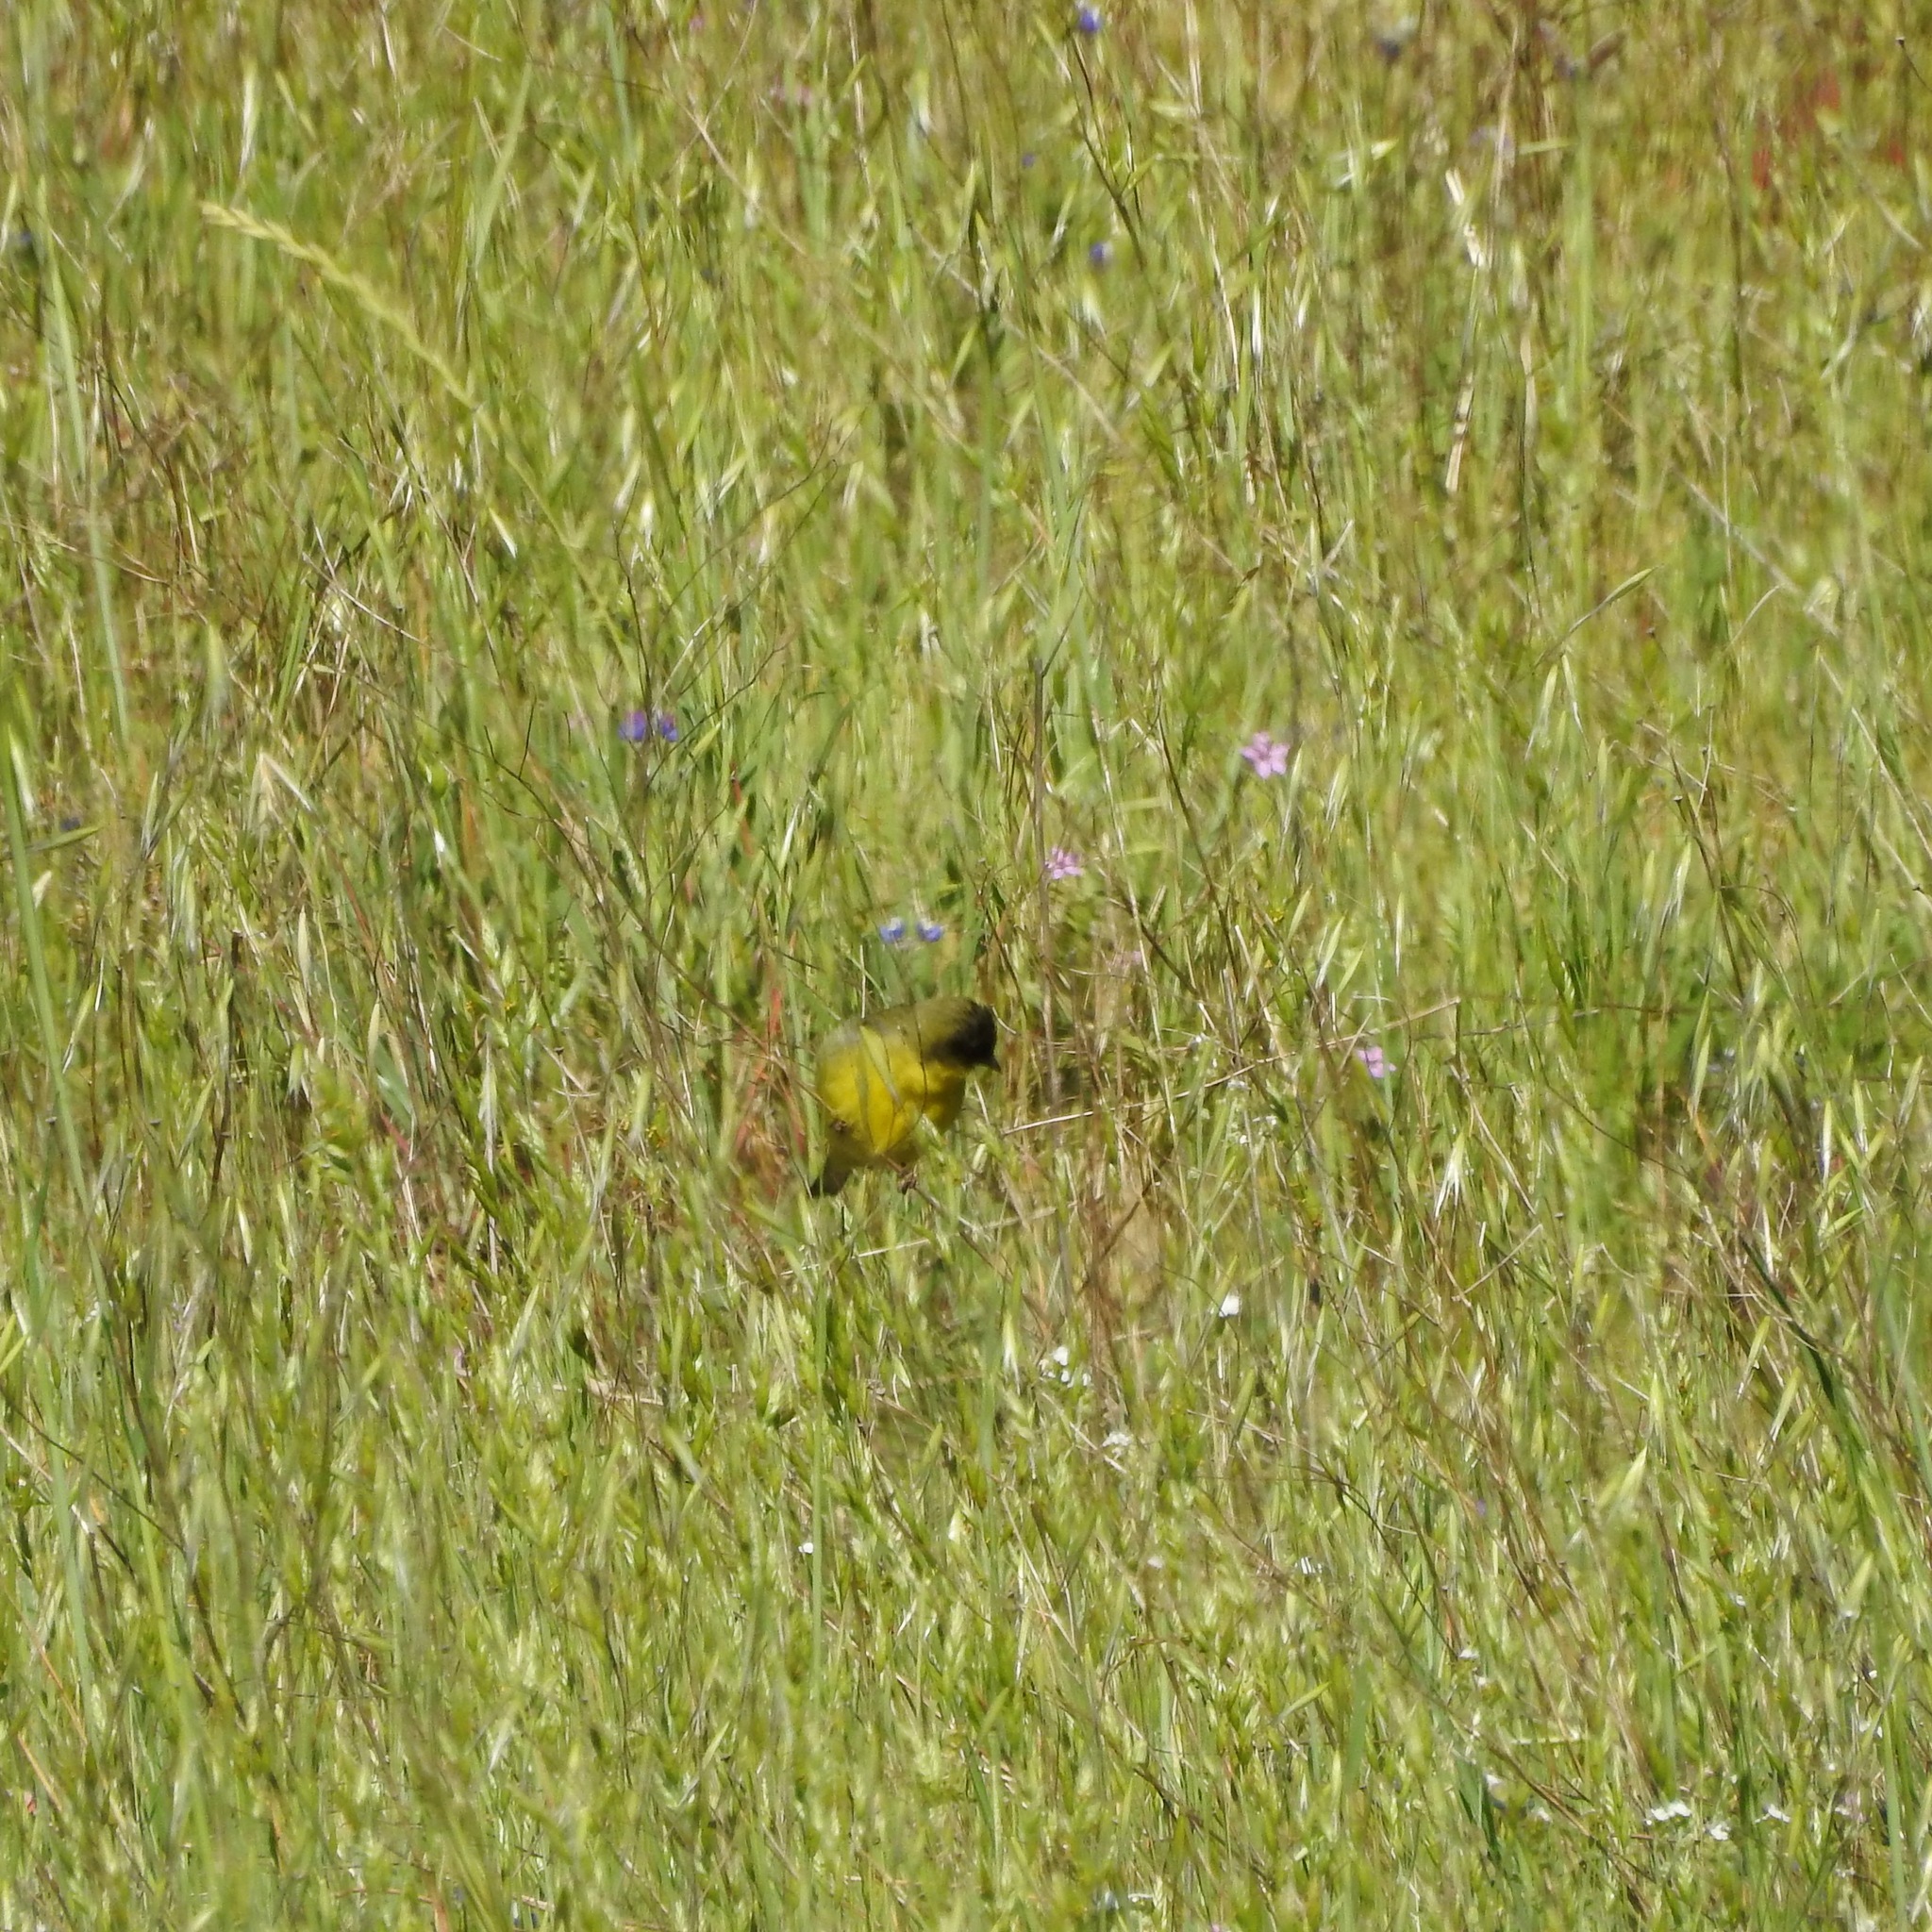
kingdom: Animalia
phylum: Chordata
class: Aves
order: Passeriformes
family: Fringillidae
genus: Spinus
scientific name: Spinus psaltria
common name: Lesser goldfinch
